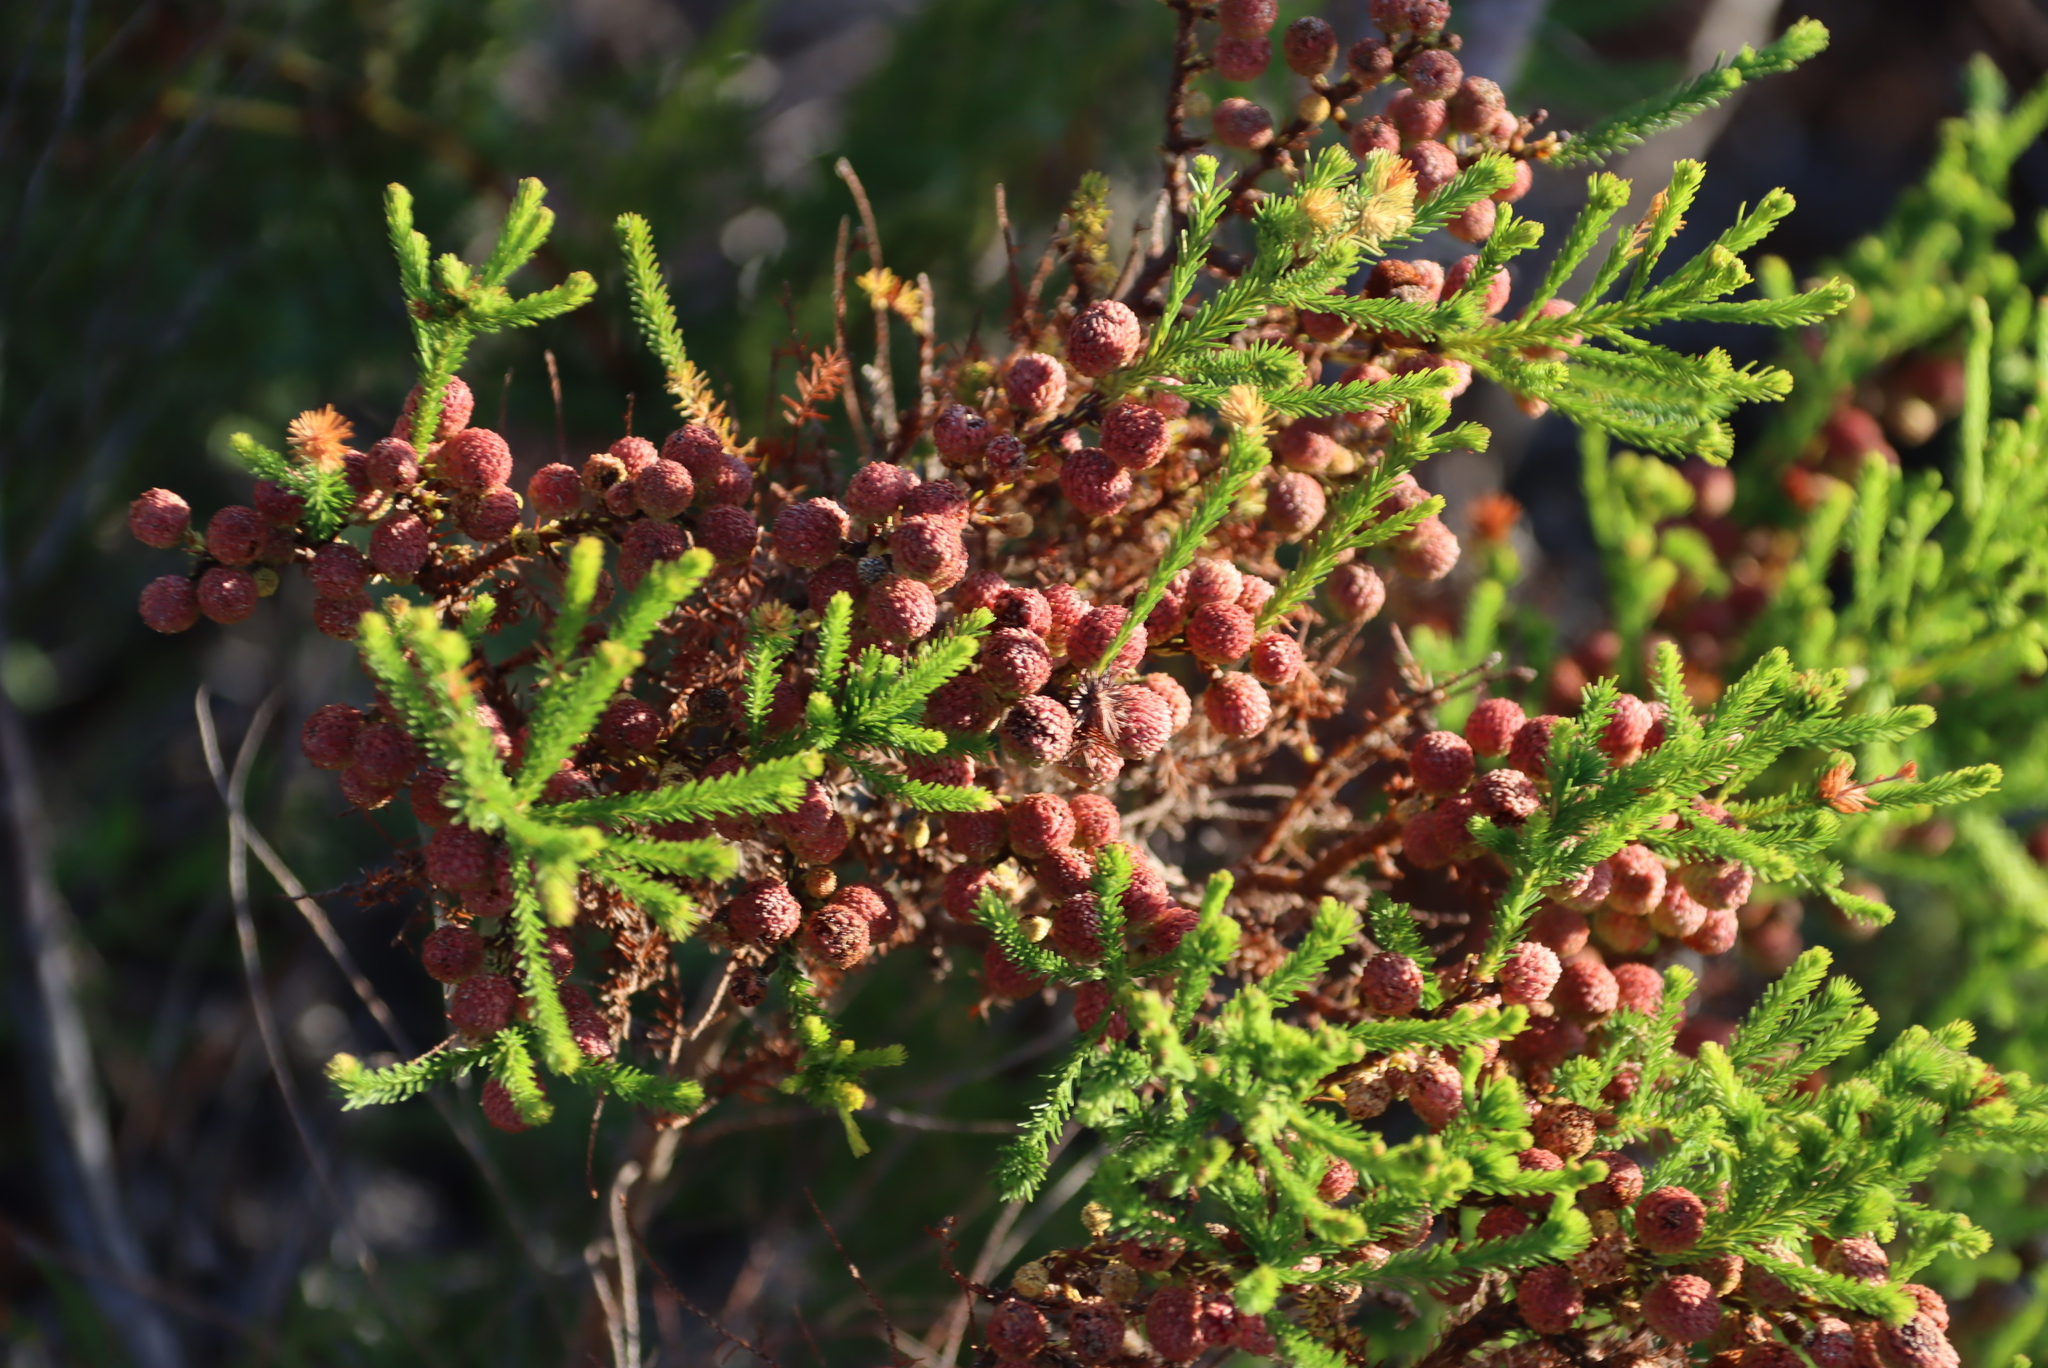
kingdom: Plantae
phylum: Tracheophyta
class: Magnoliopsida
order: Bruniales
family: Bruniaceae
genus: Berzelia
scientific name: Berzelia lanuginosa
